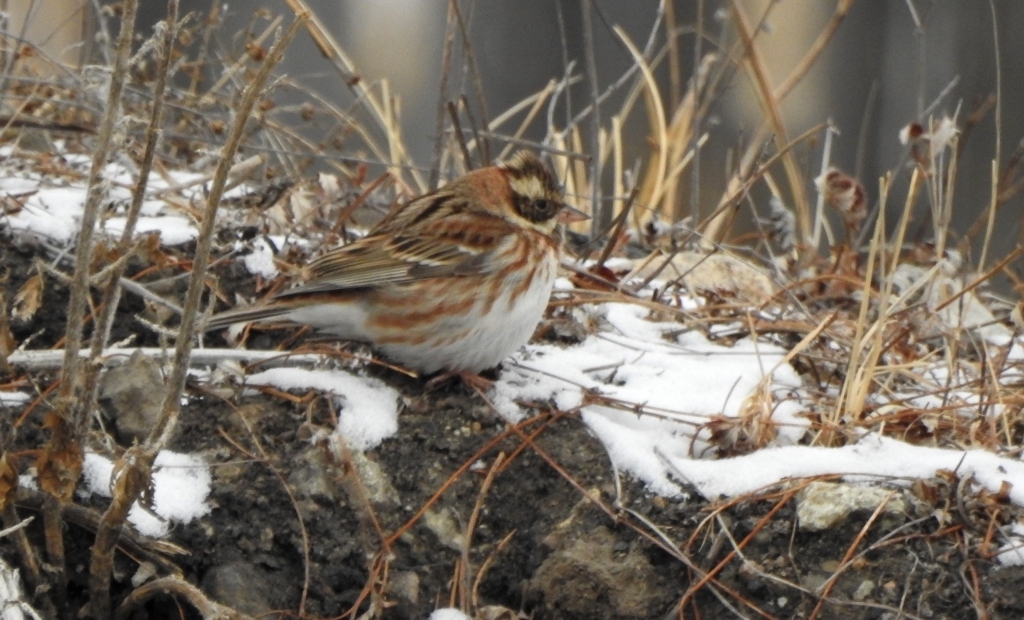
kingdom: Animalia
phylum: Chordata
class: Aves
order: Passeriformes
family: Emberizidae
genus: Emberiza
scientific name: Emberiza rustica
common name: Rustic bunting
